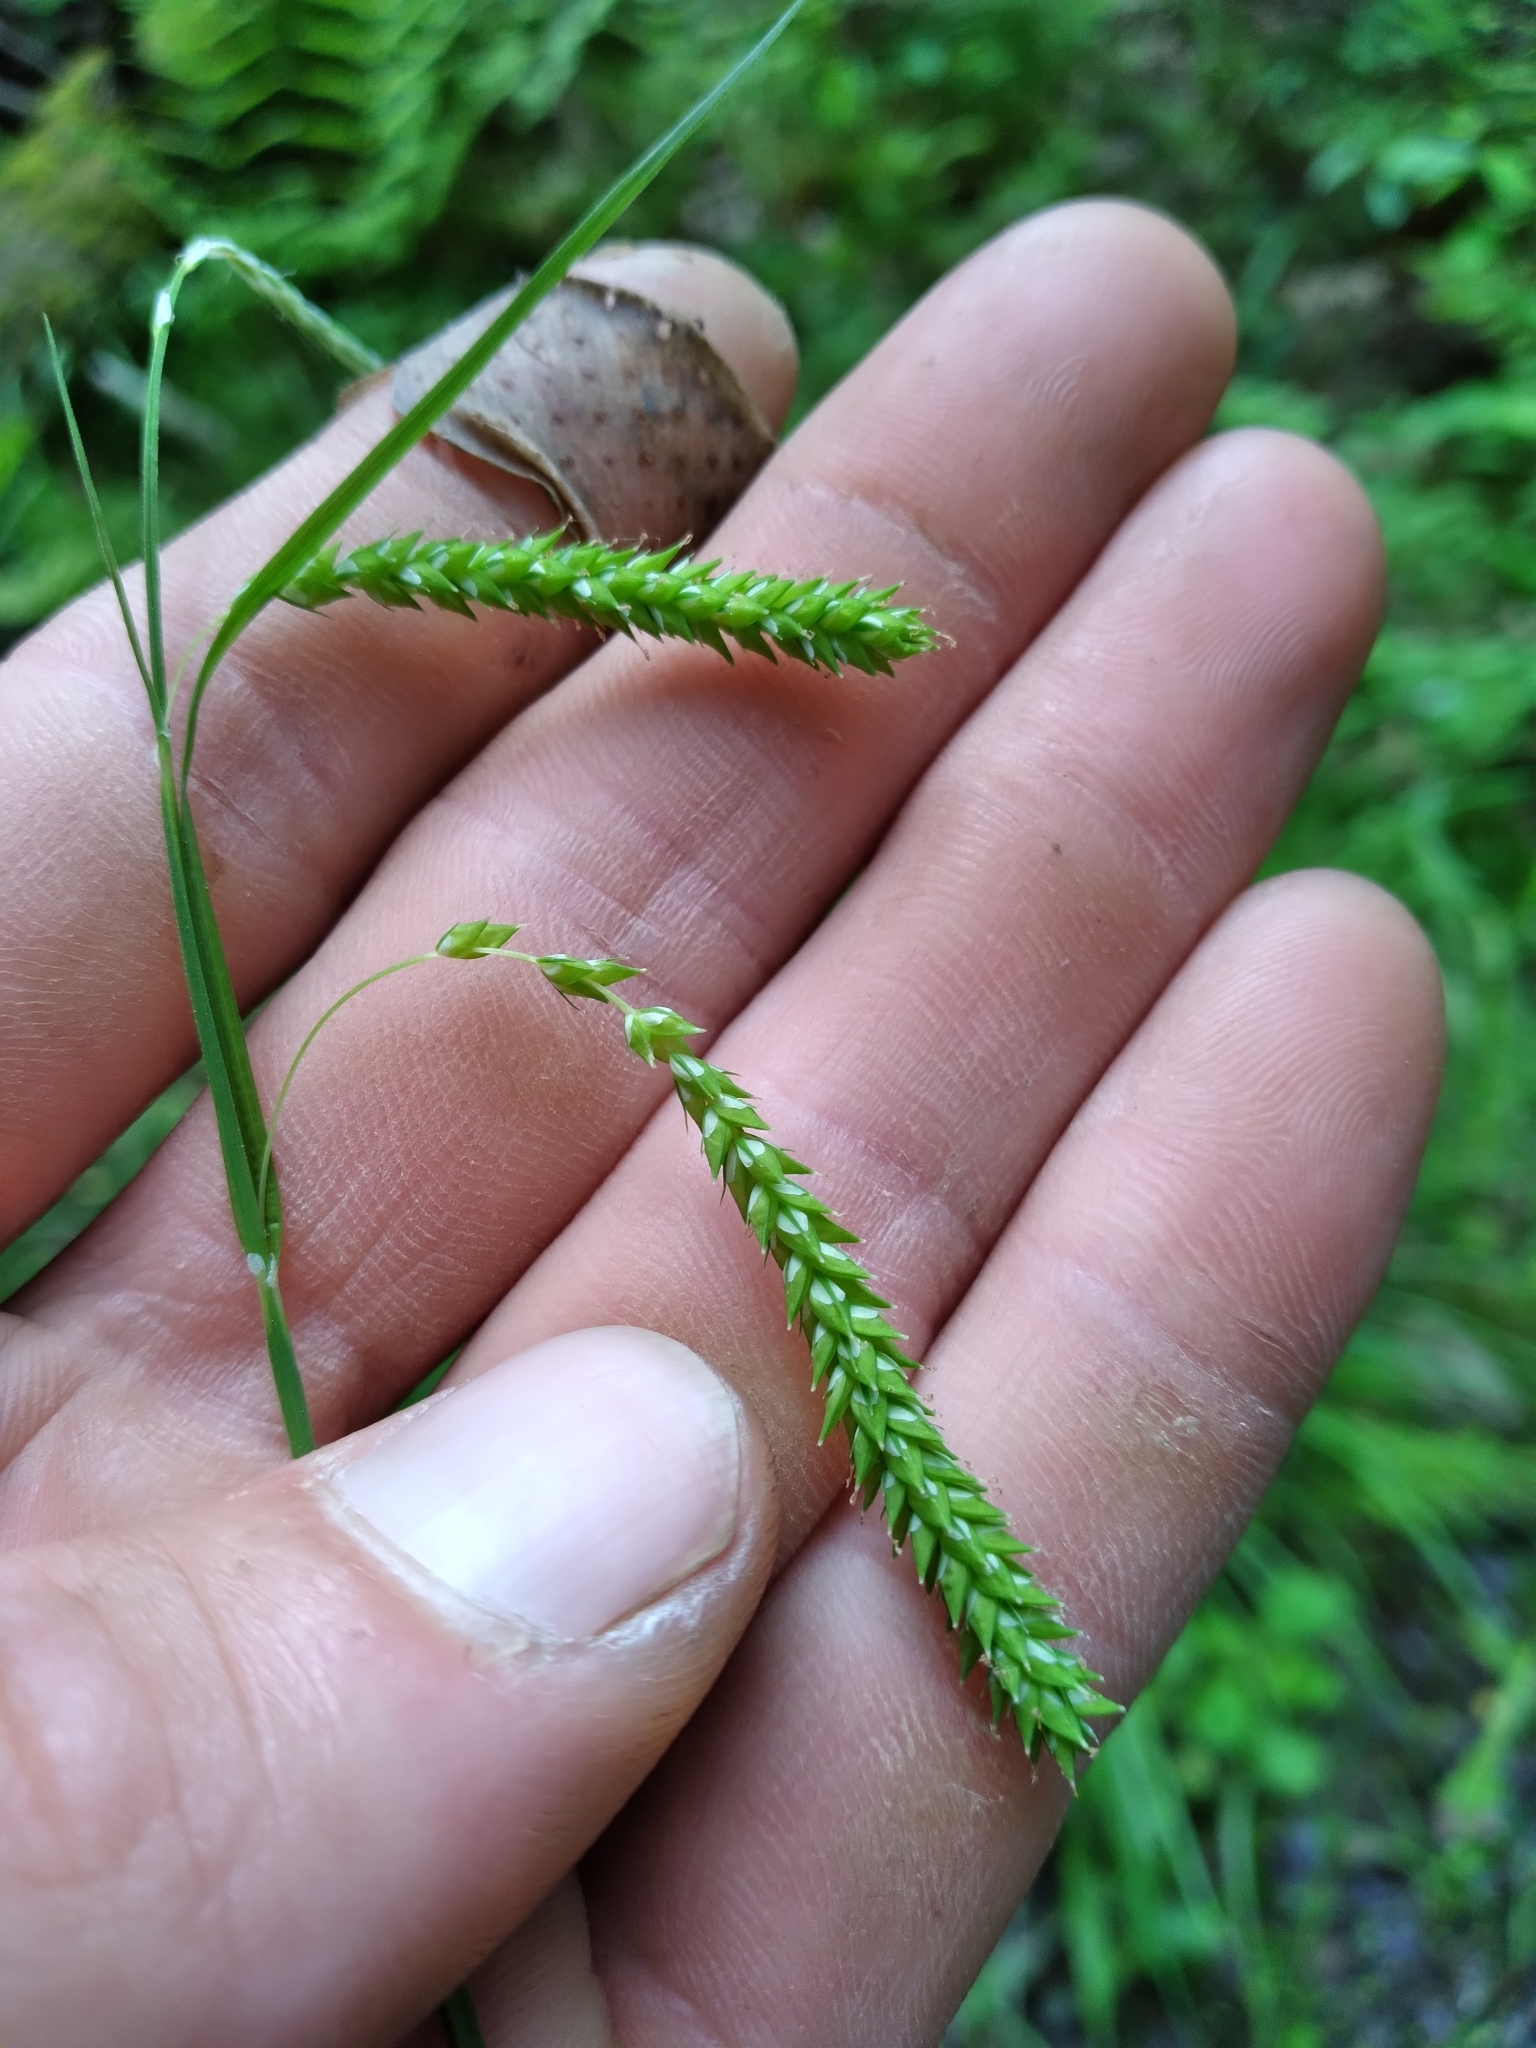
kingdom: Plantae
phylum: Tracheophyta
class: Liliopsida
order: Poales
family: Cyperaceae
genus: Carex
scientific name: Carex prasina
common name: Drooping sedge
